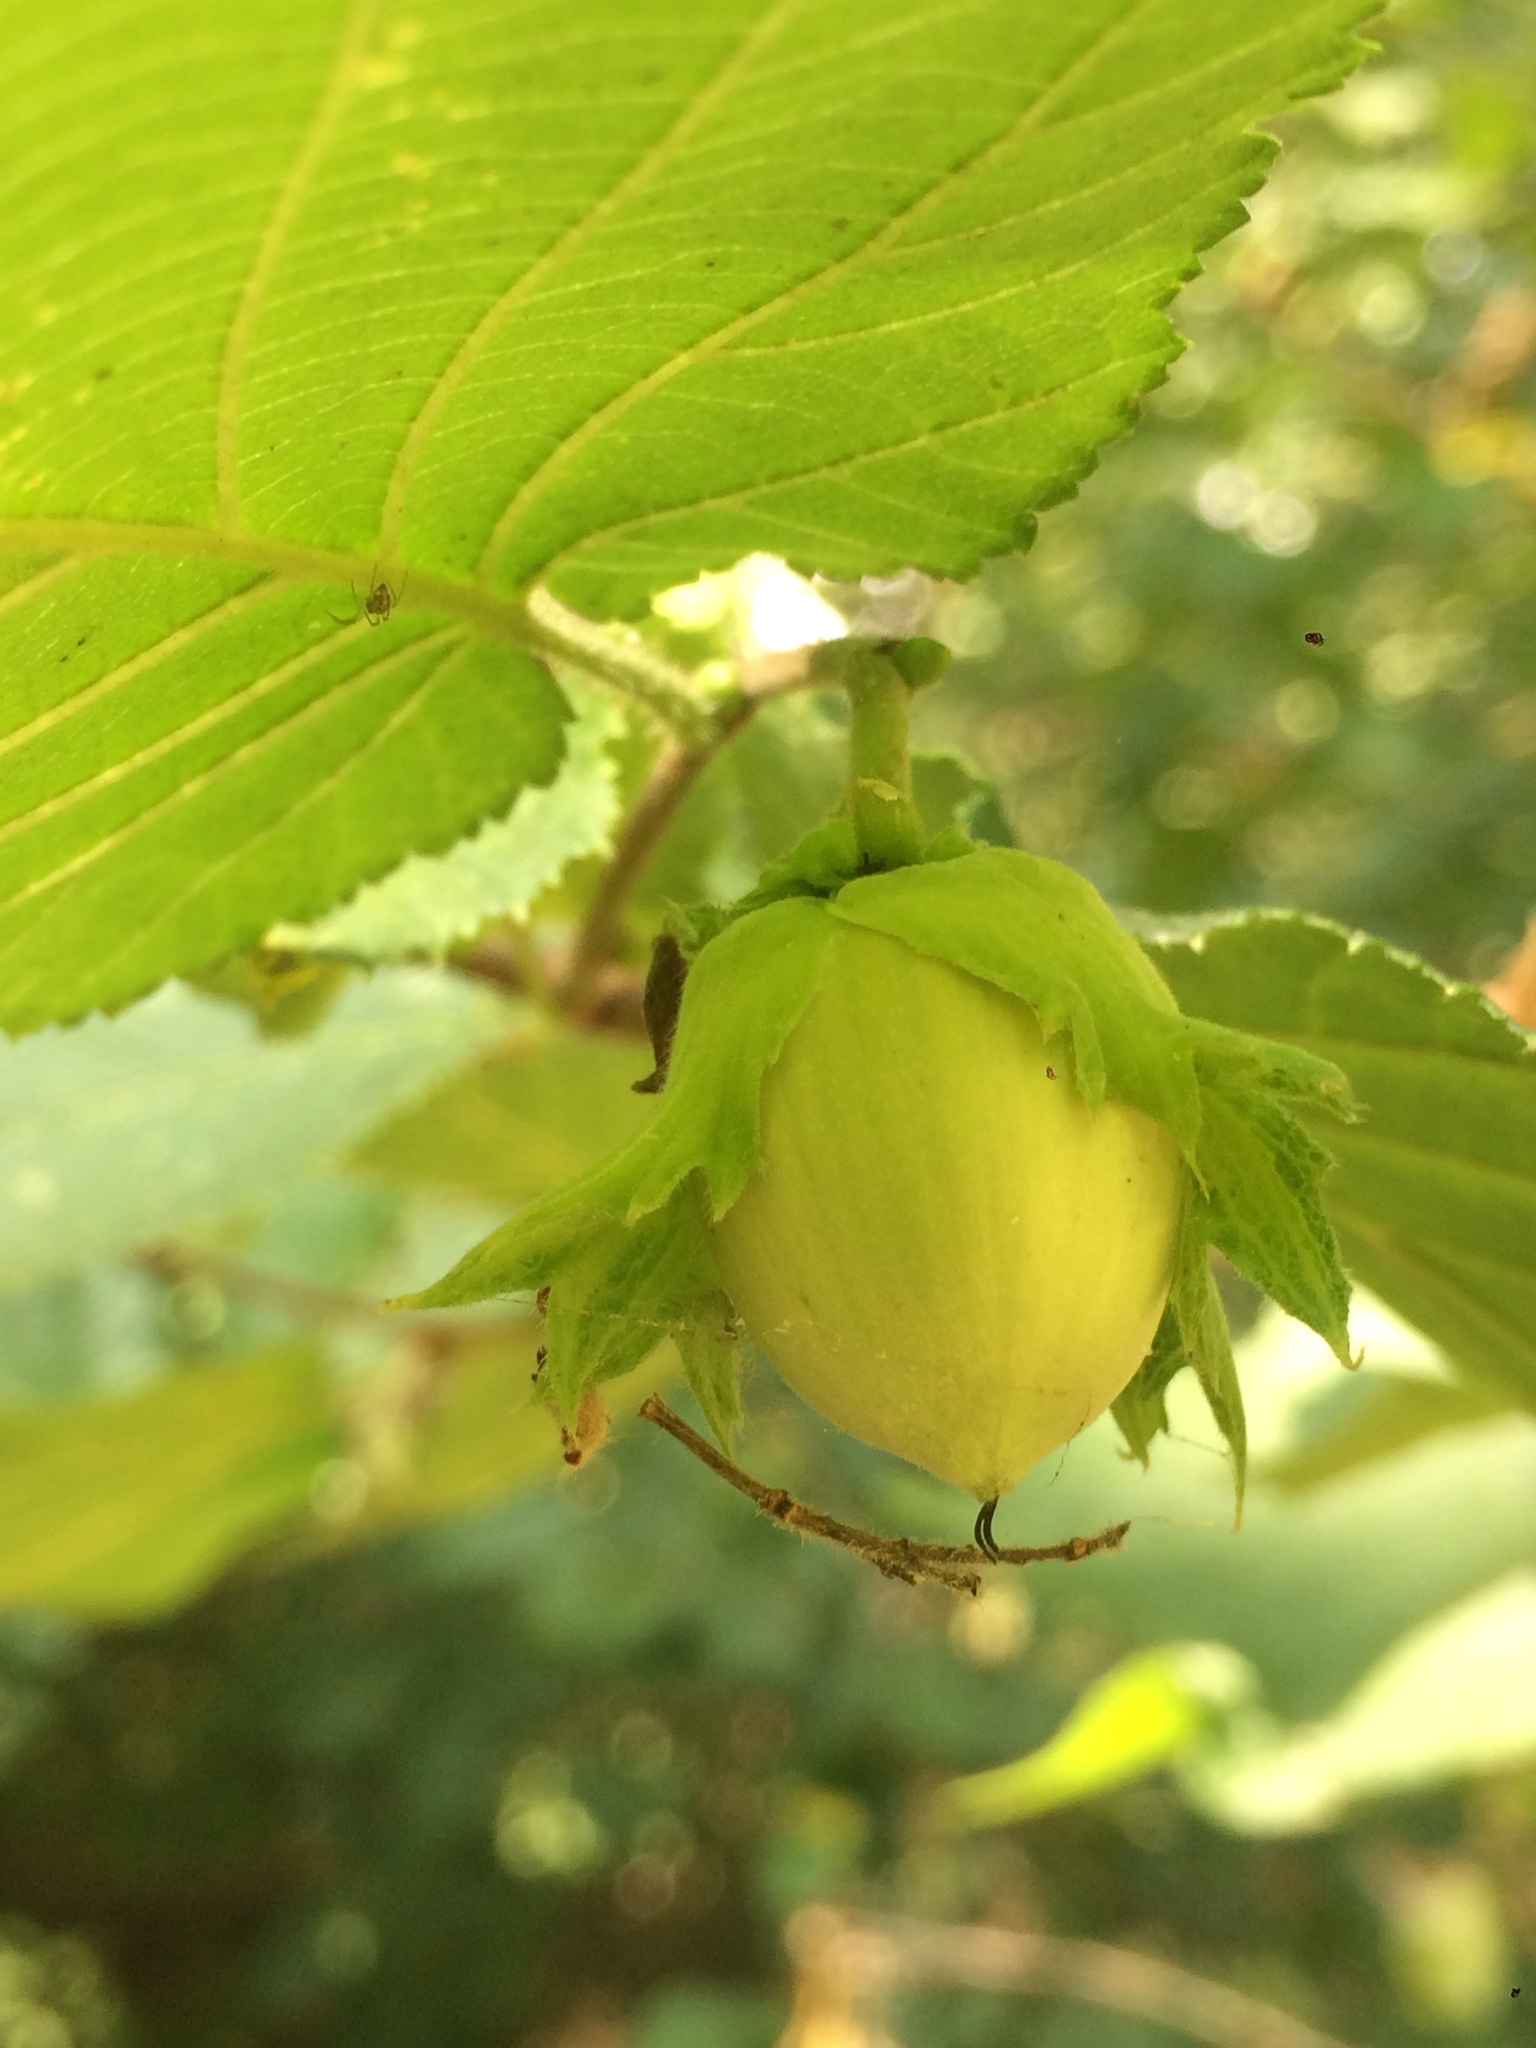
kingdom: Plantae
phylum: Tracheophyta
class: Magnoliopsida
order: Fagales
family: Betulaceae
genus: Corylus
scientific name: Corylus avellana
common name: European hazel
